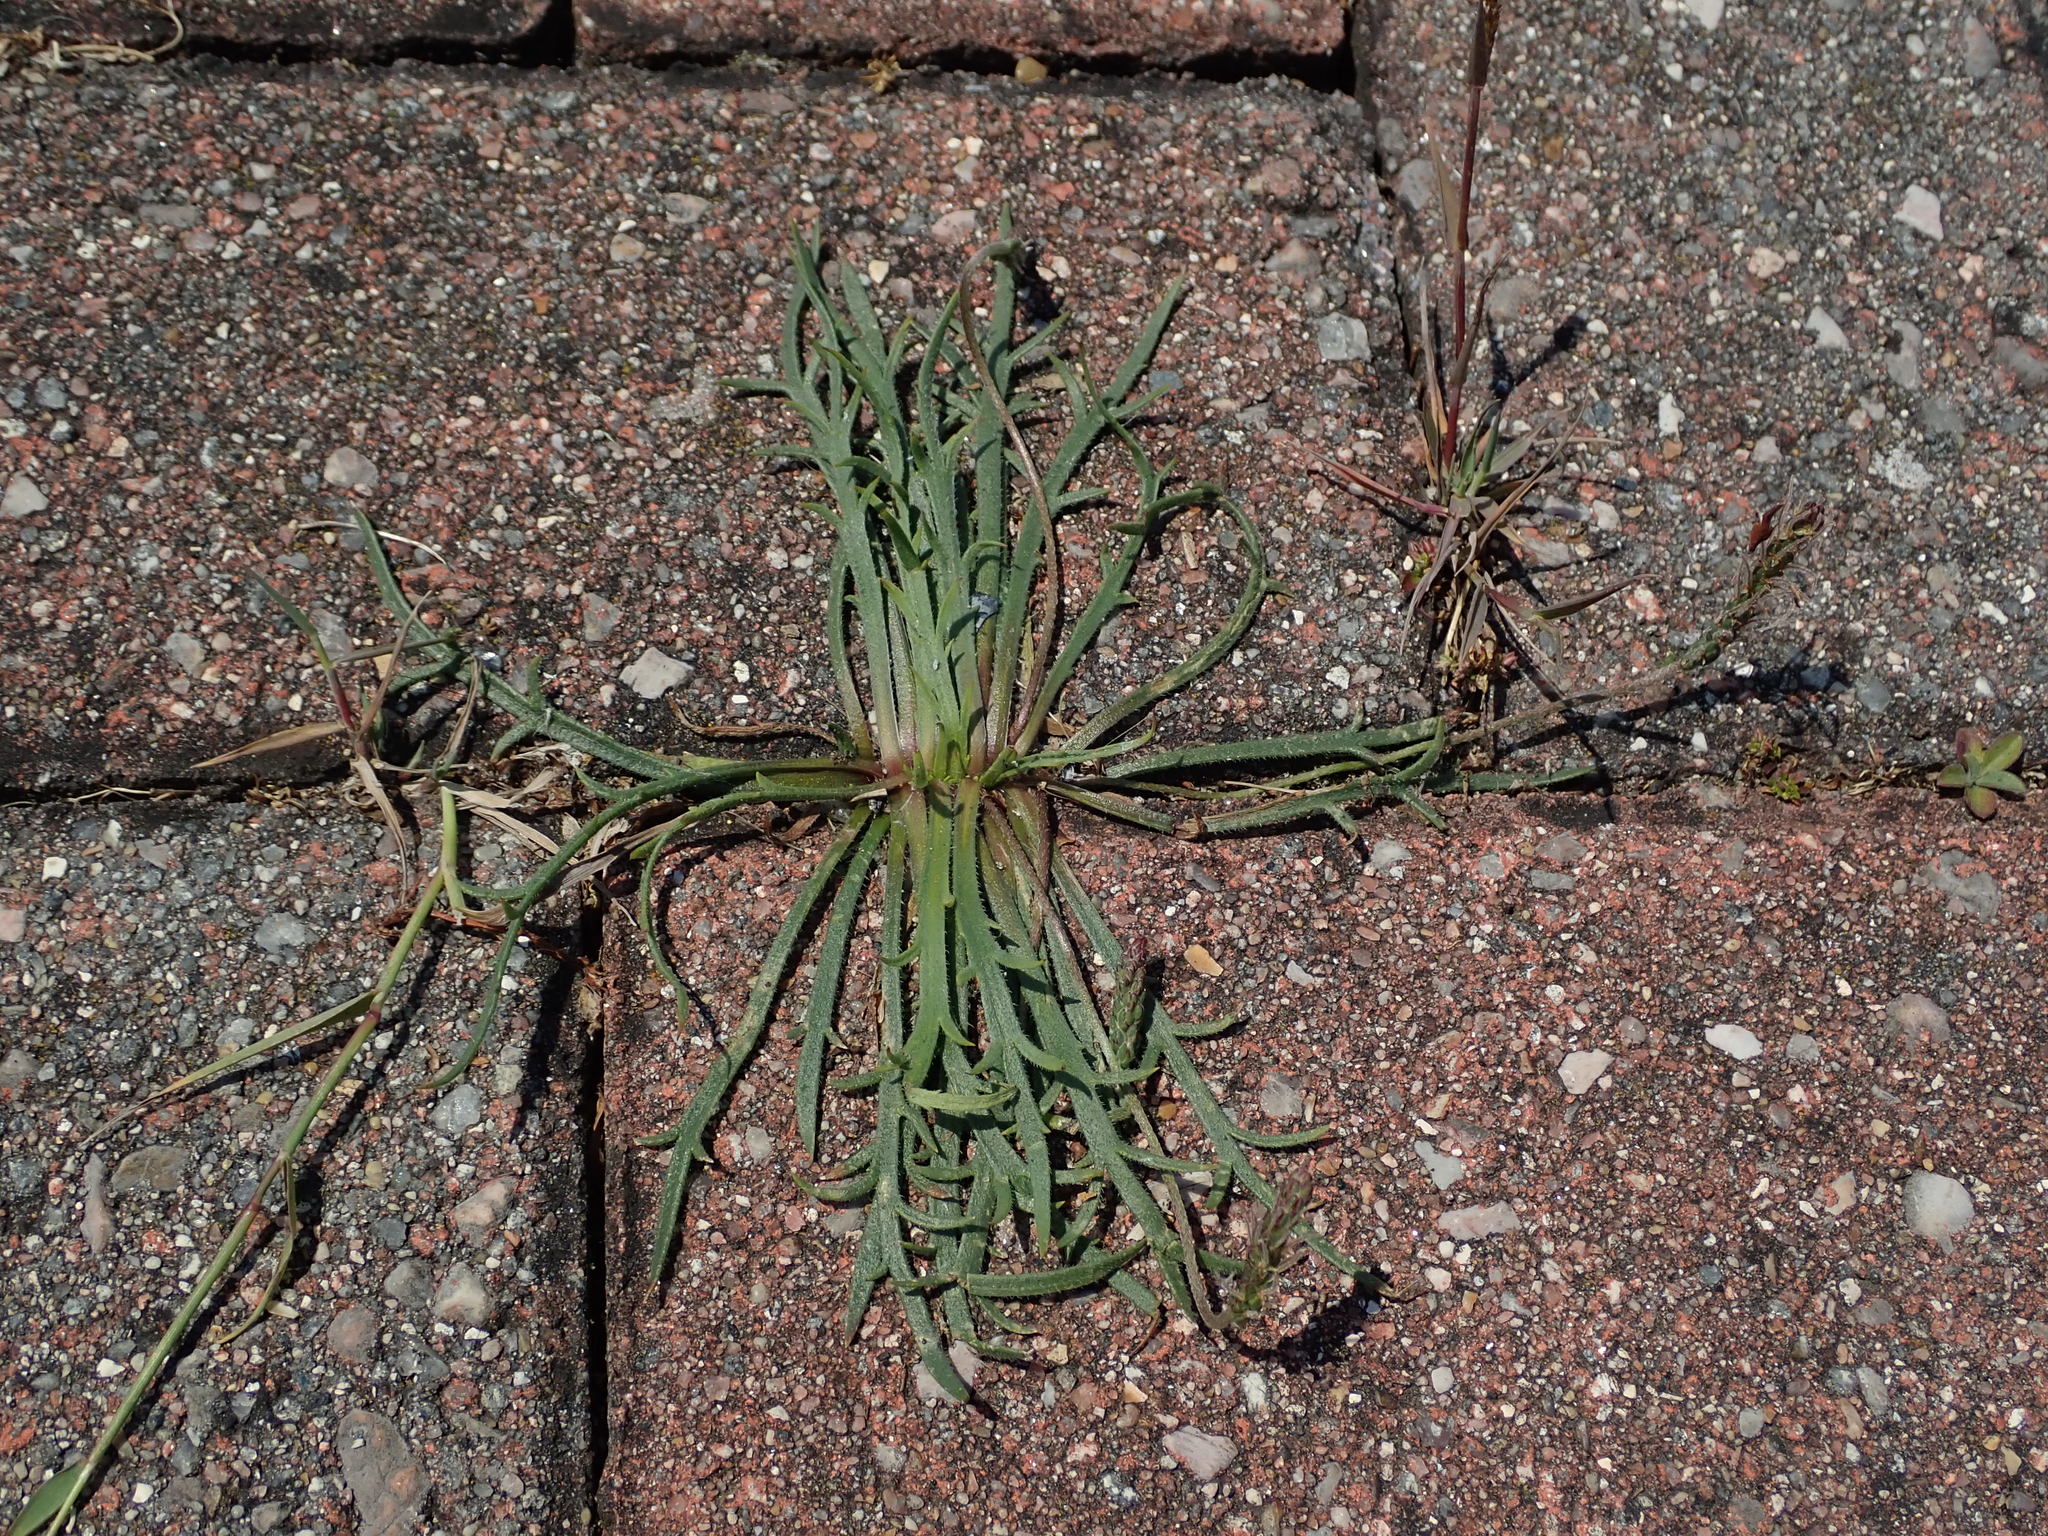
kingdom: Plantae
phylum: Tracheophyta
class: Magnoliopsida
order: Lamiales
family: Plantaginaceae
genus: Plantago
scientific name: Plantago coronopus
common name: Buck's-horn plantain
